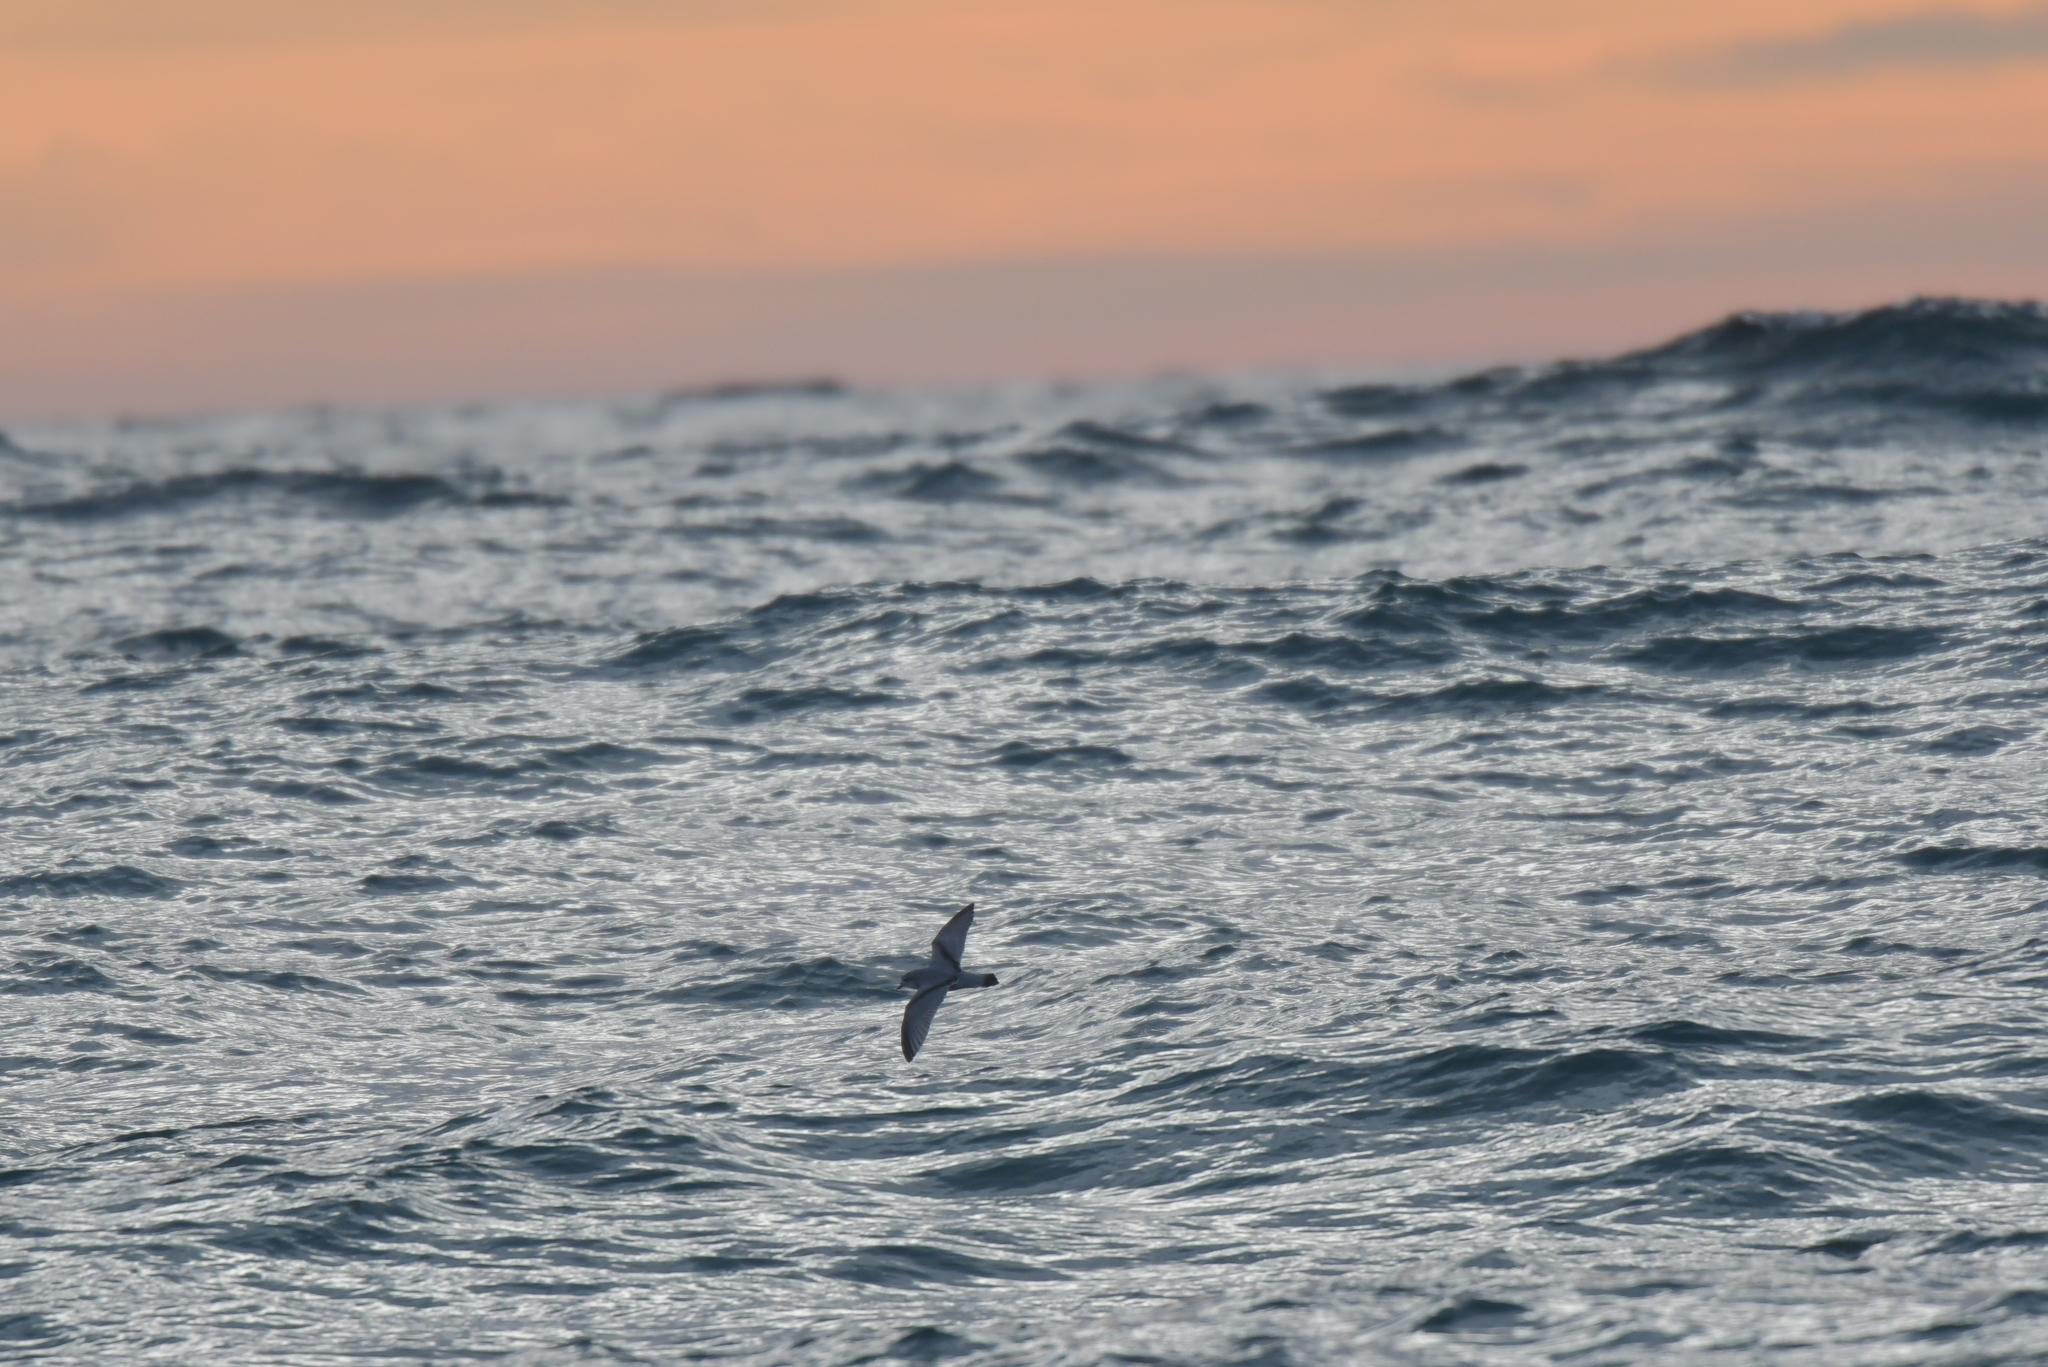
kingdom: Animalia
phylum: Chordata
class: Aves
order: Procellariiformes
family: Procellariidae
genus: Pachyptila
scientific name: Pachyptila turtur
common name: Fairy prion
